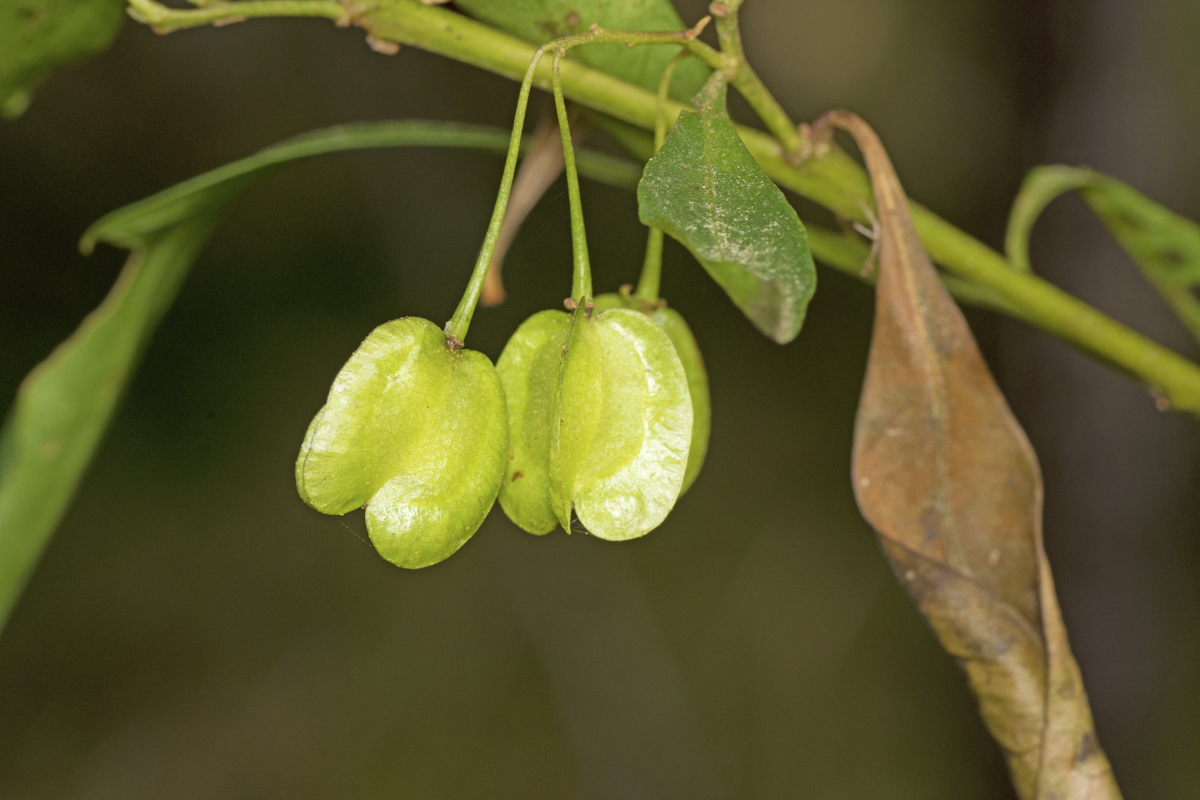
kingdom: Plantae
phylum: Tracheophyta
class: Magnoliopsida
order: Sapindales
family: Sapindaceae
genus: Dodonaea
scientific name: Dodonaea triquetra
